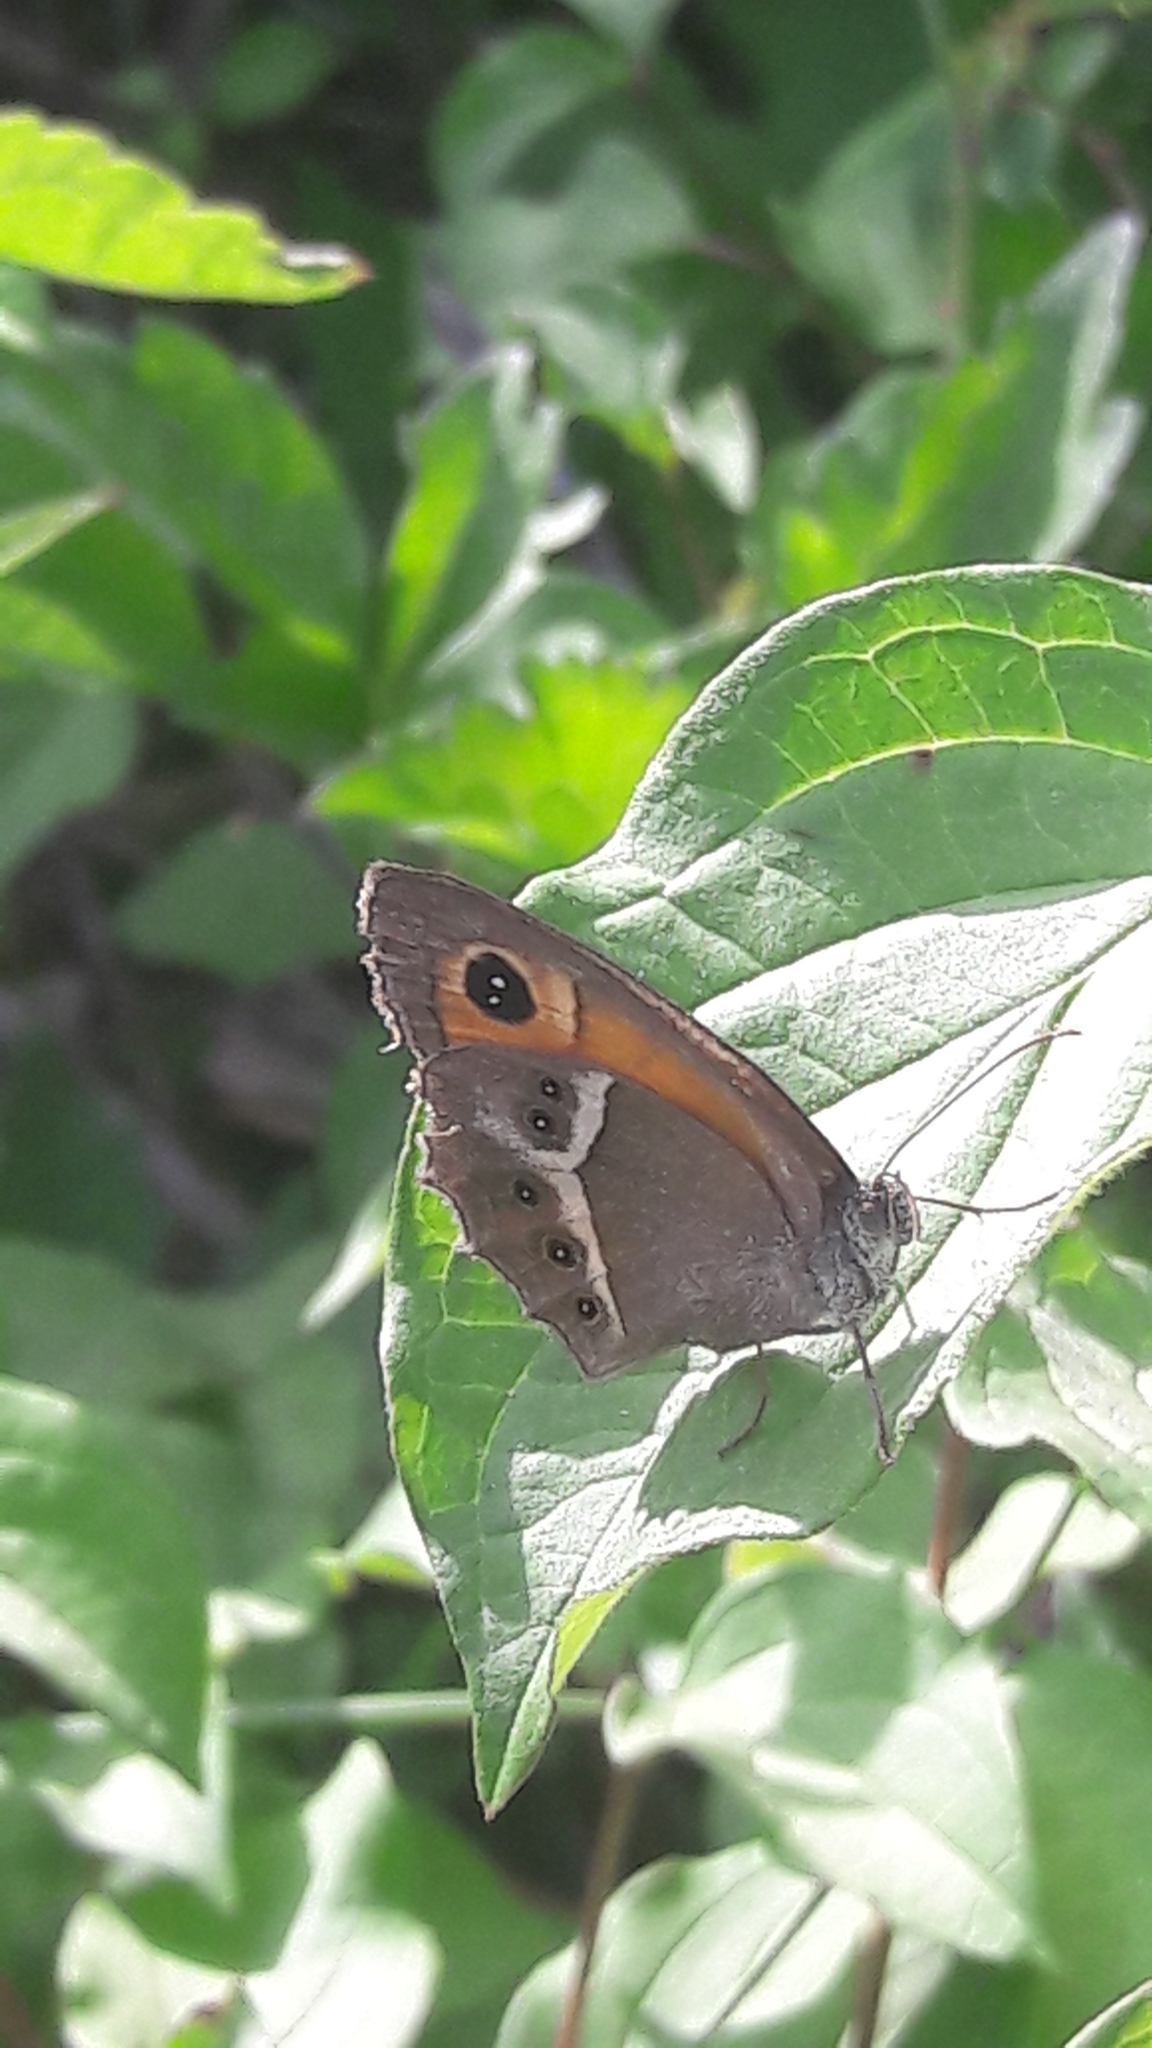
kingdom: Animalia
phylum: Arthropoda
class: Insecta
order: Lepidoptera
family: Nymphalidae
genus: Pyronia
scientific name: Pyronia bathseba
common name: Spanish gatekeeper
